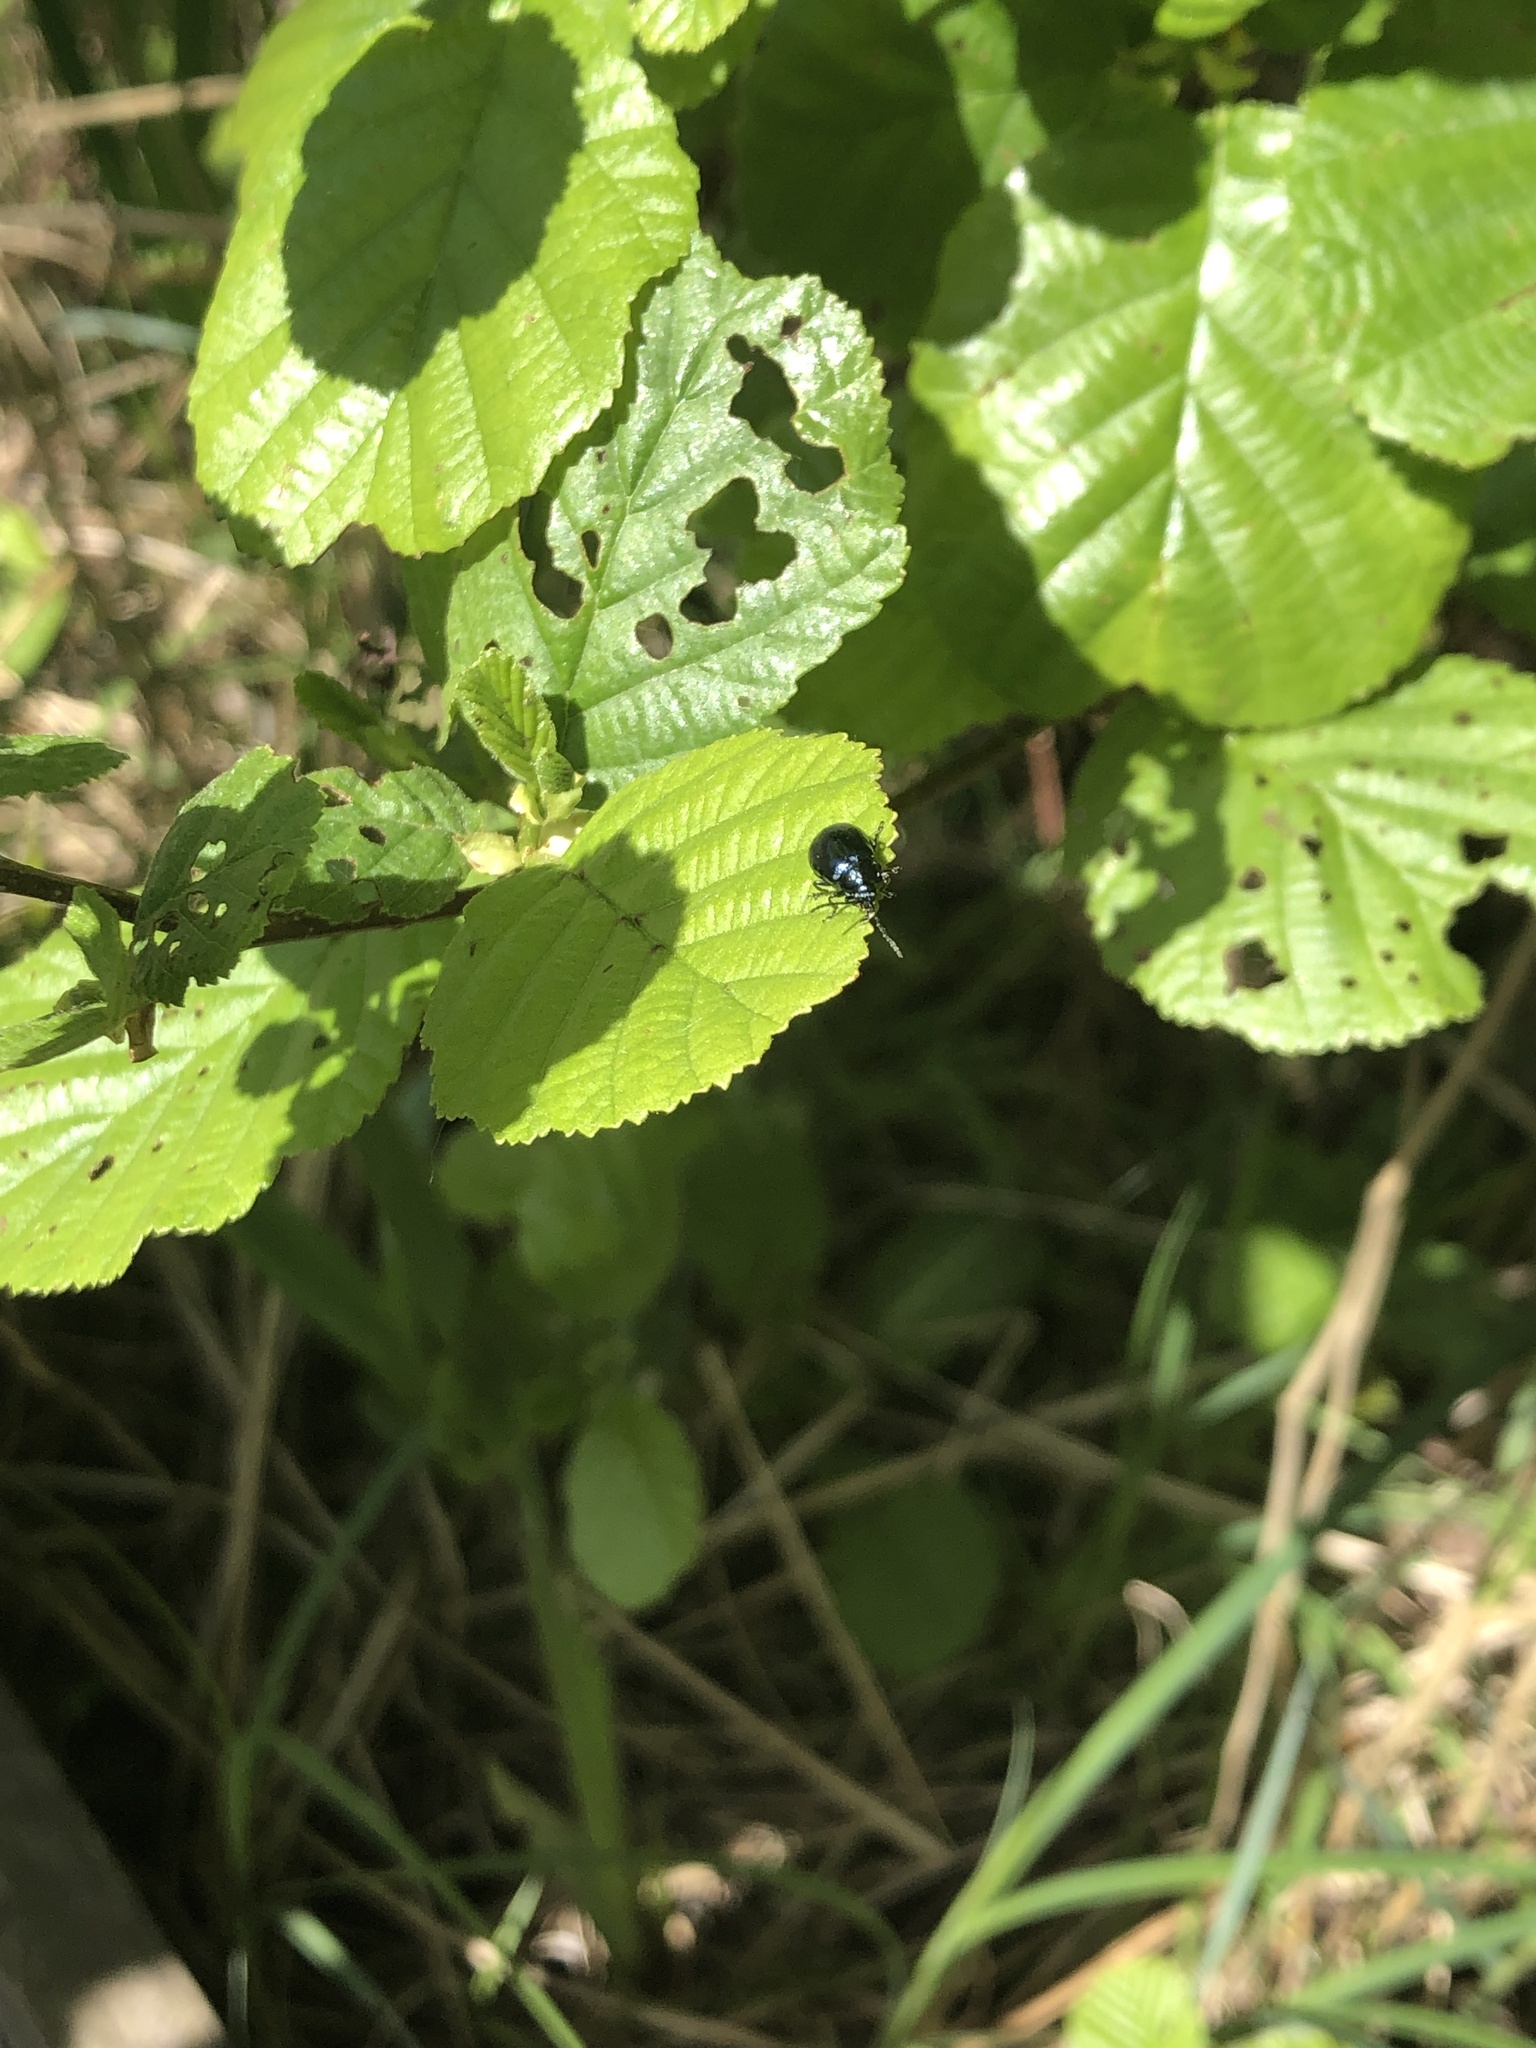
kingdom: Animalia
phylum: Arthropoda
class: Insecta
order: Coleoptera
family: Chrysomelidae
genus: Agelastica
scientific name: Agelastica alni
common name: Alder leaf beetle
